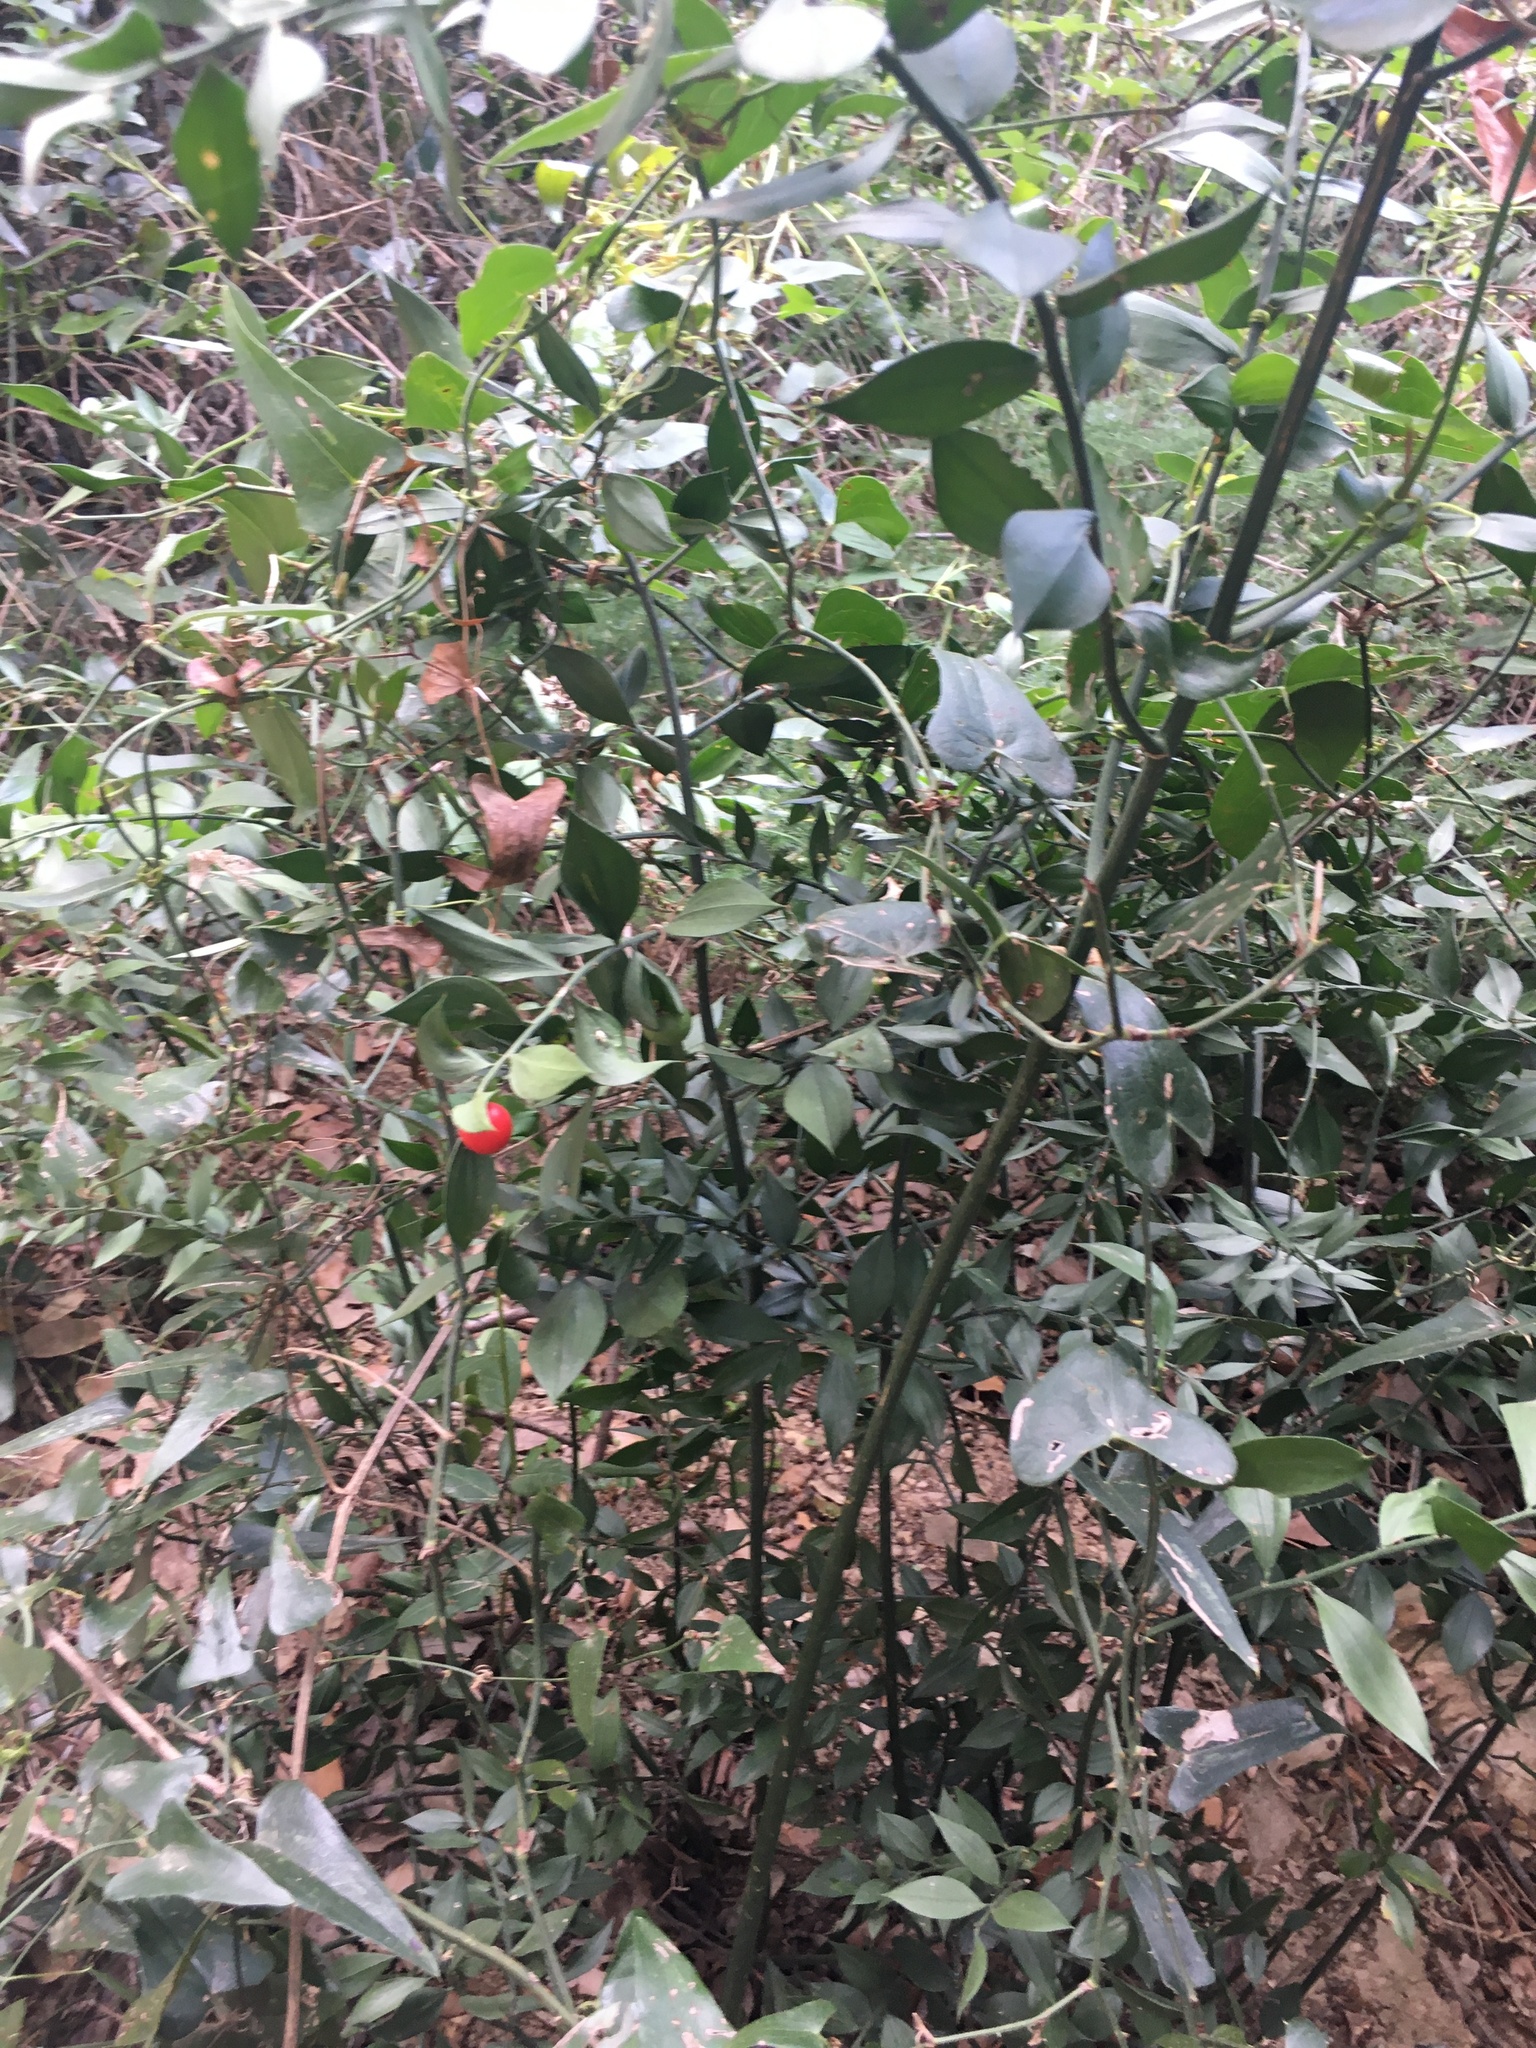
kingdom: Plantae
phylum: Tracheophyta
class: Liliopsida
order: Asparagales
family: Asparagaceae
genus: Ruscus
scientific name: Ruscus aculeatus
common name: Butcher's-broom
